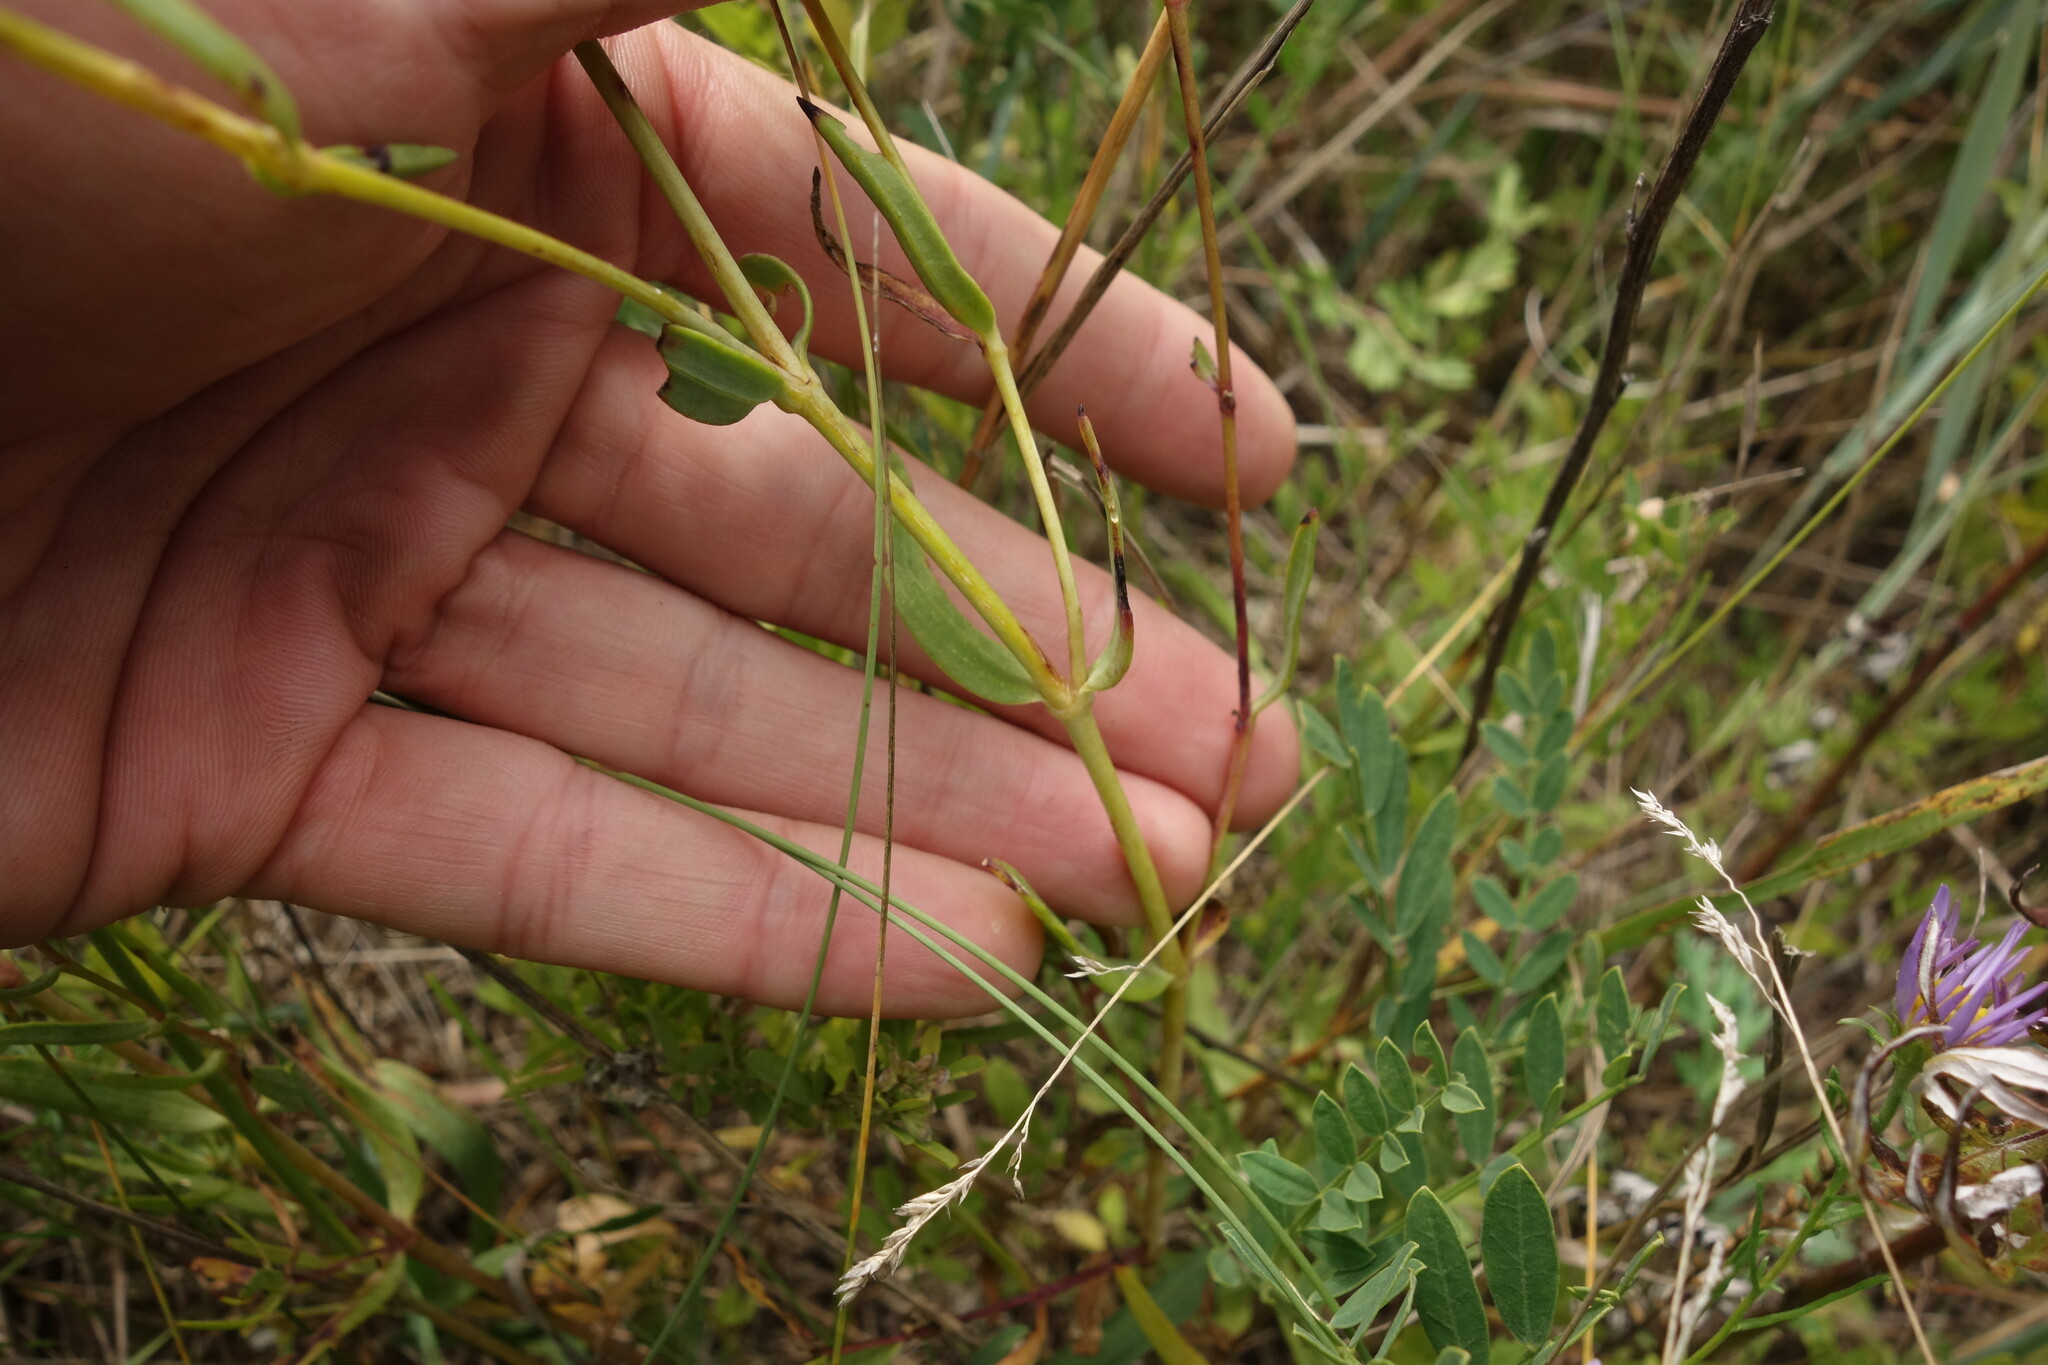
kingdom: Plantae
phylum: Tracheophyta
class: Magnoliopsida
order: Caryophyllales
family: Caryophyllaceae
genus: Gypsophila
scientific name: Gypsophila davurica
